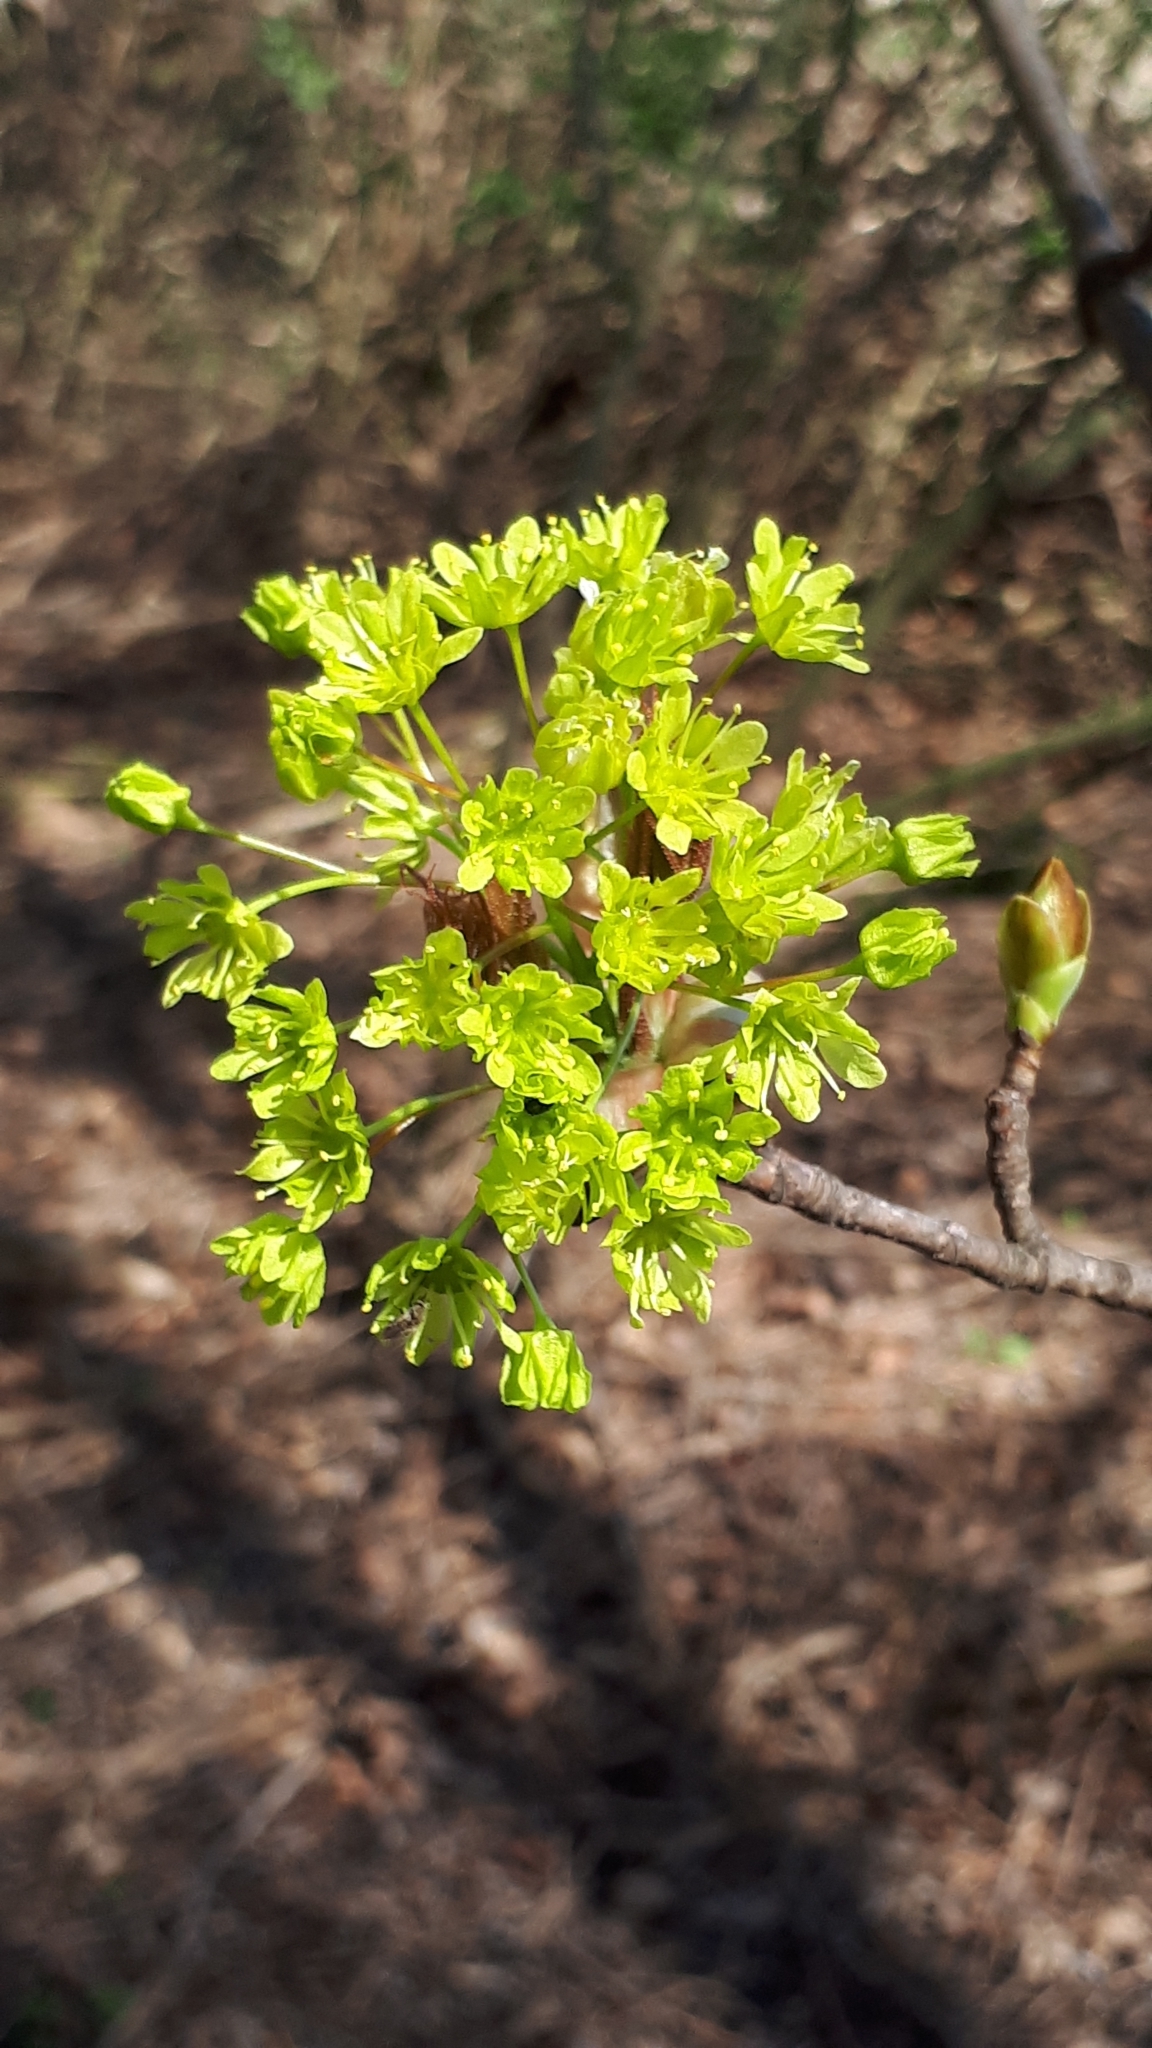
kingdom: Plantae
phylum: Tracheophyta
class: Magnoliopsida
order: Sapindales
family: Sapindaceae
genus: Acer
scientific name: Acer platanoides
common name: Norway maple
